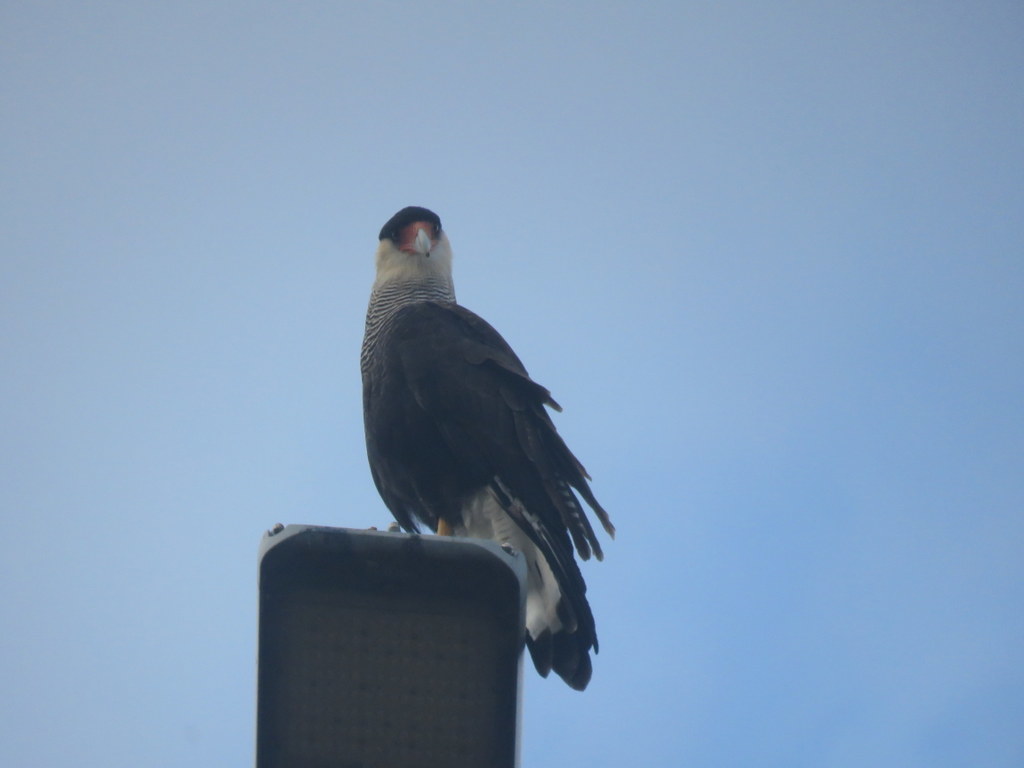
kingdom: Animalia
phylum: Chordata
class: Aves
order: Falconiformes
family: Falconidae
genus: Caracara
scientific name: Caracara plancus
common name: Southern caracara
